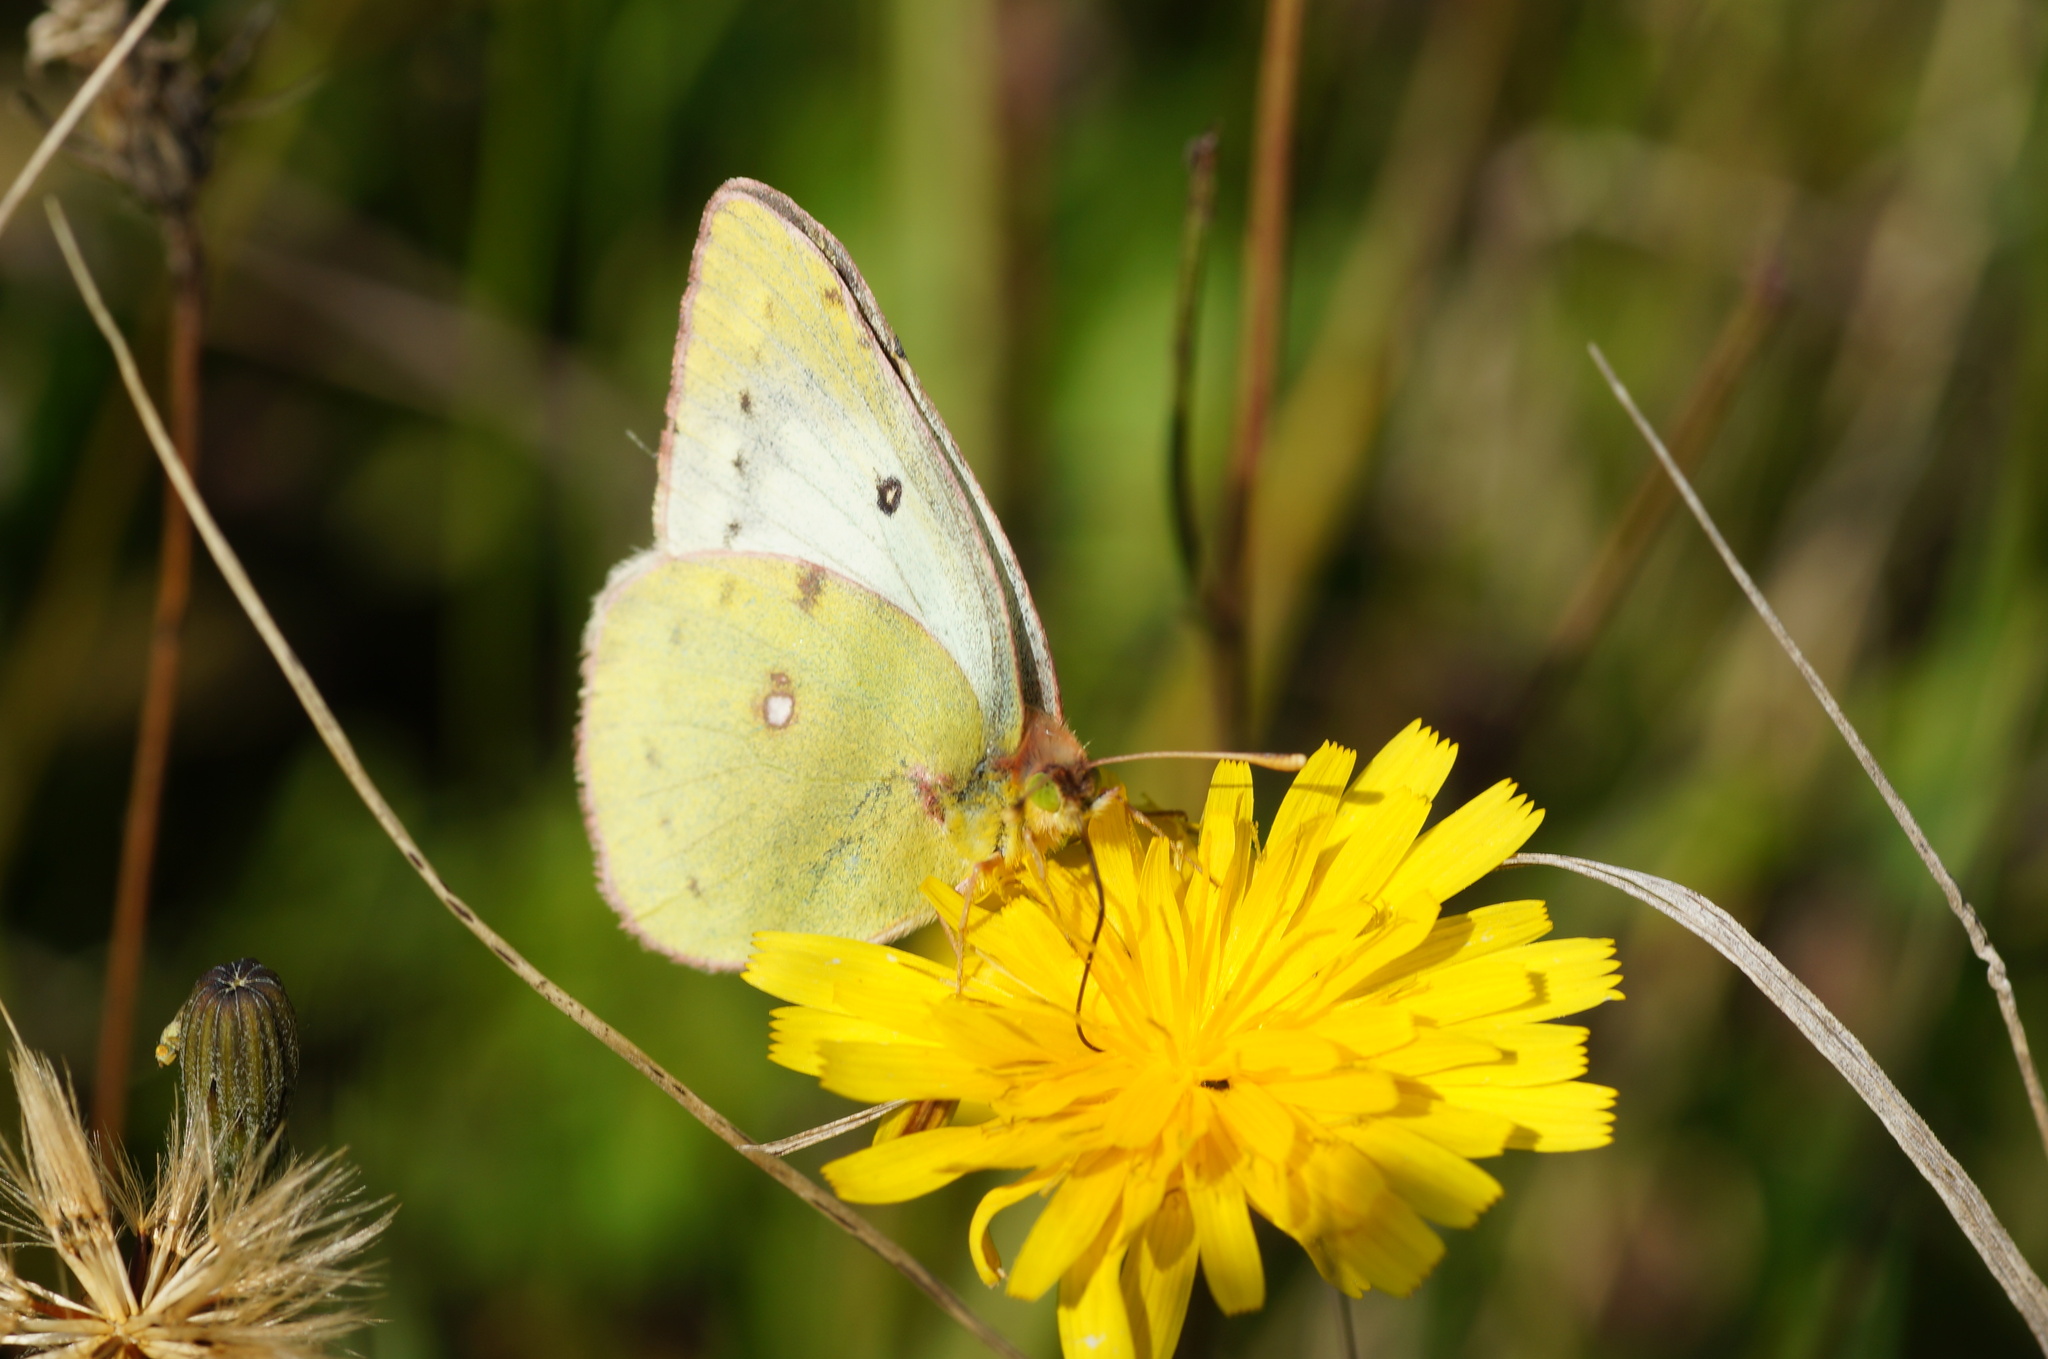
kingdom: Animalia
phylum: Arthropoda
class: Insecta
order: Lepidoptera
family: Pieridae
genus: Colias
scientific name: Colias hyale
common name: Pale clouded yellow
